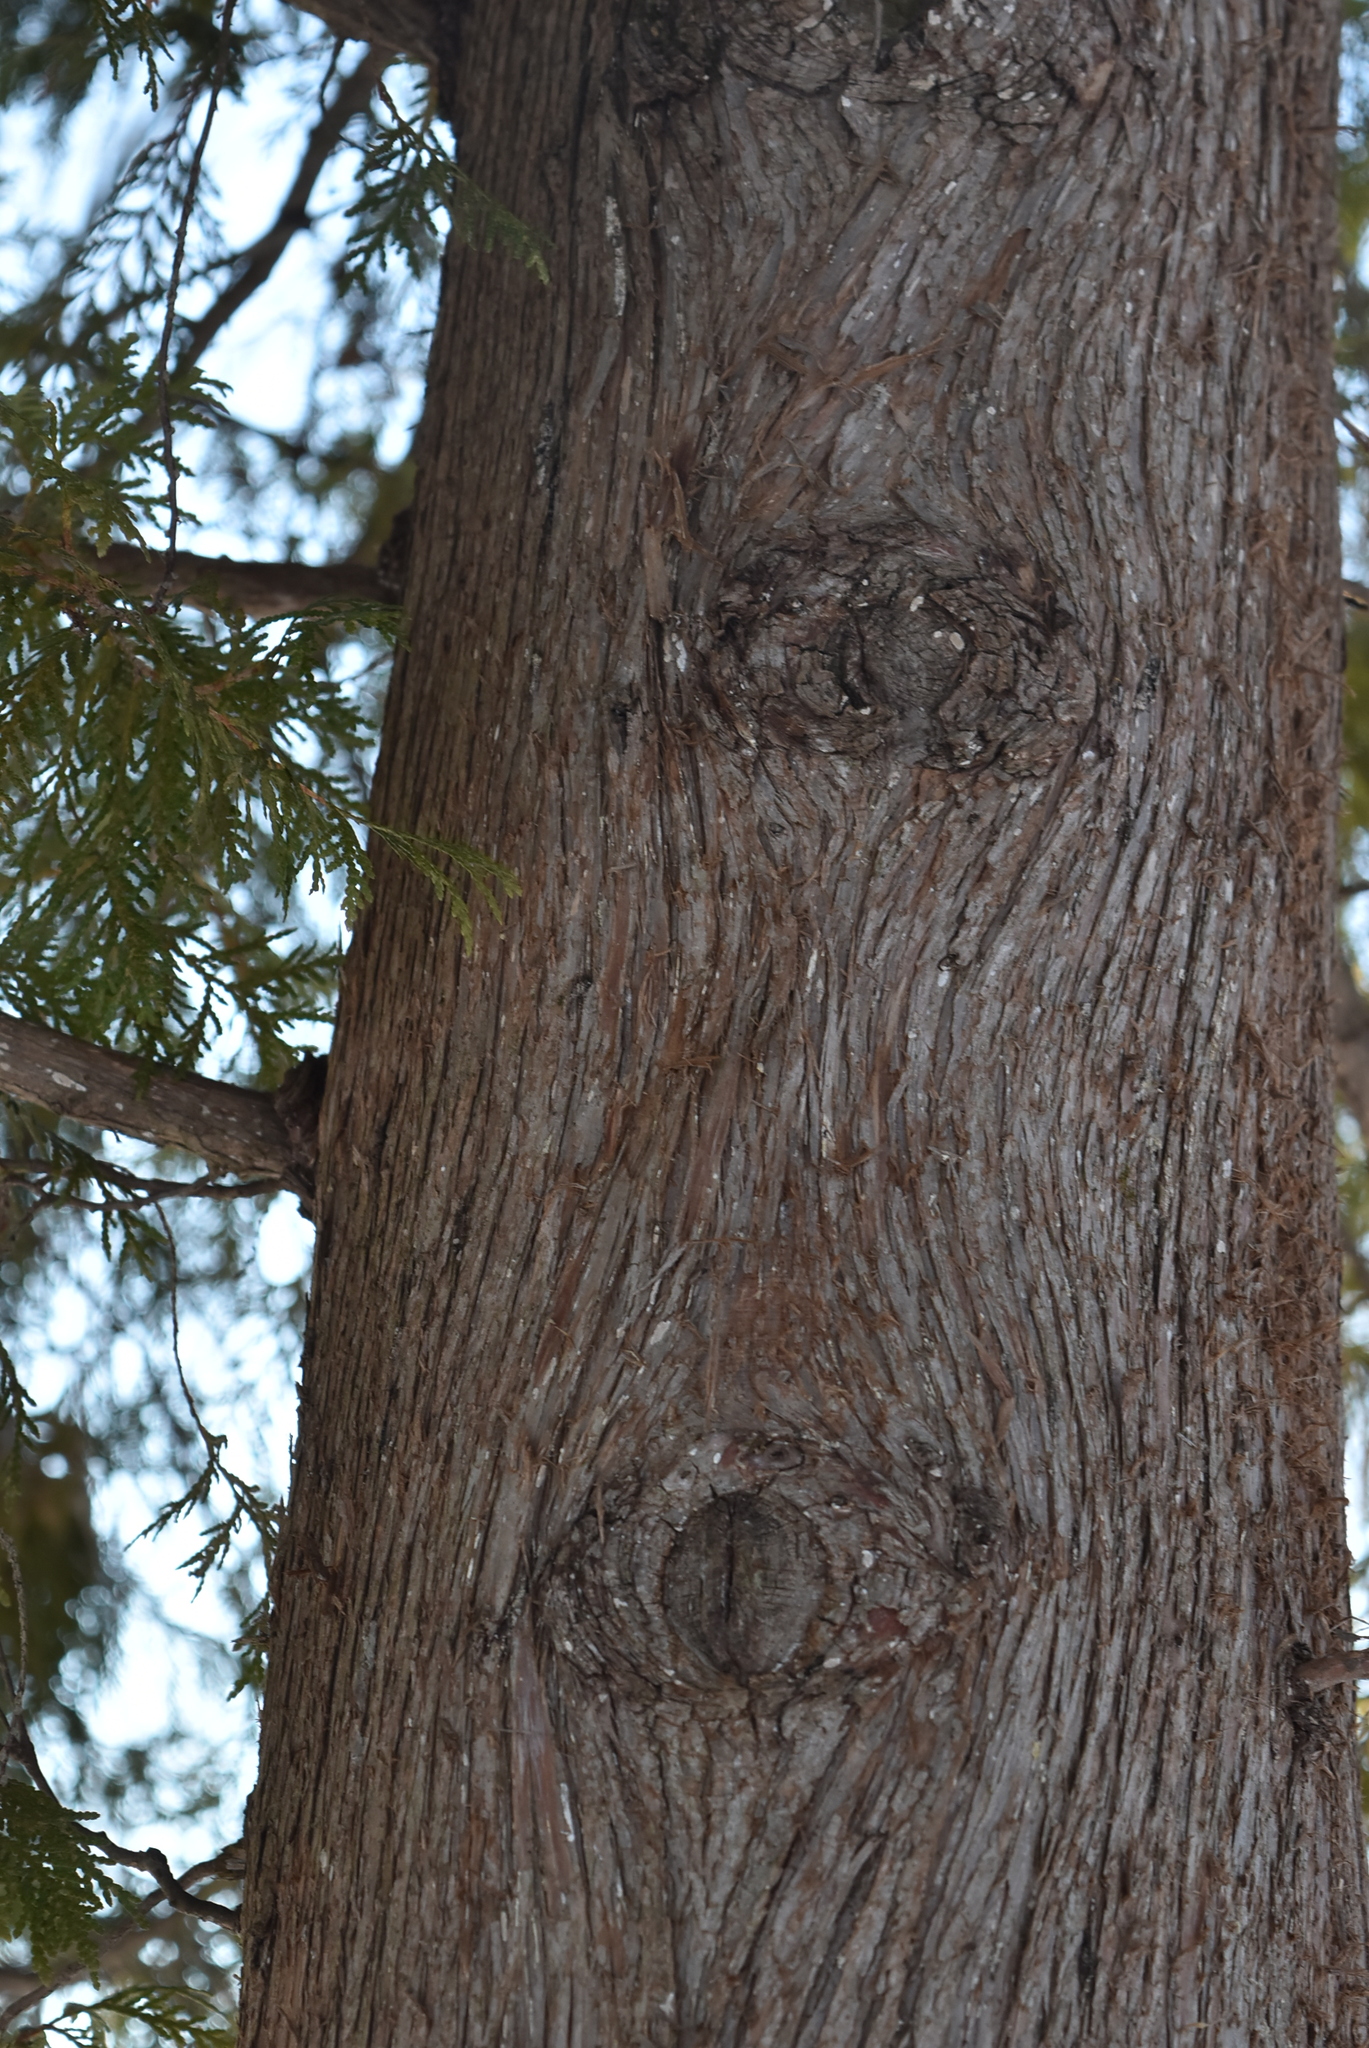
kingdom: Plantae
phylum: Tracheophyta
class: Pinopsida
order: Pinales
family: Cupressaceae
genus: Thuja
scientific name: Thuja occidentalis
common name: Northern white-cedar
